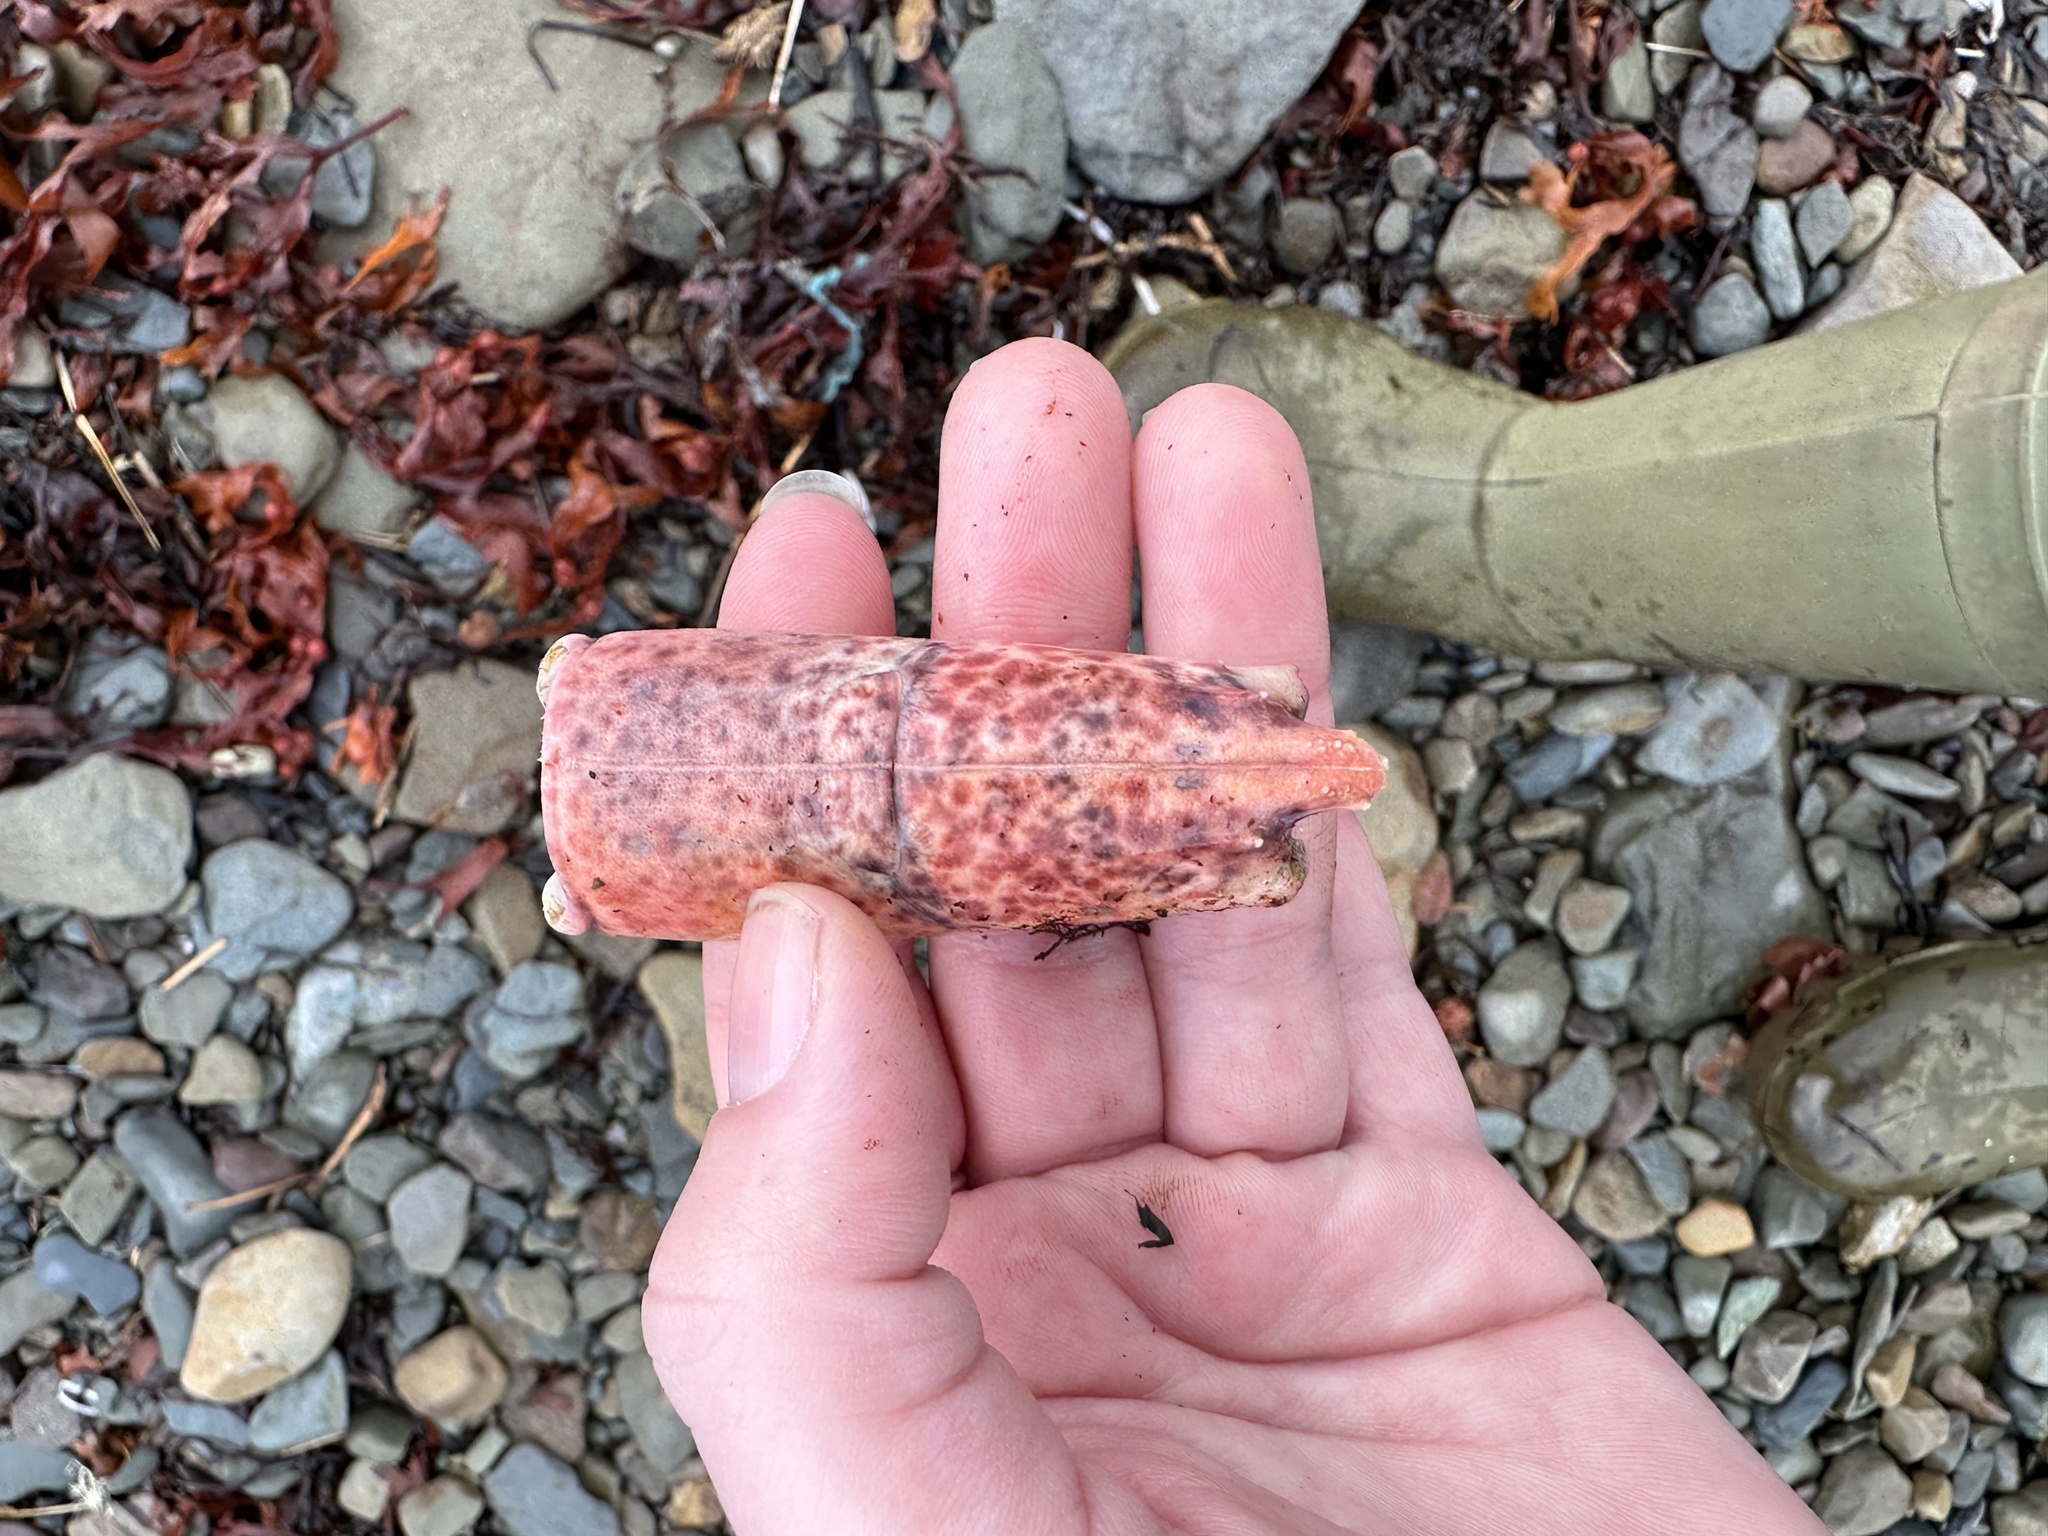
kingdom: Animalia
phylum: Arthropoda
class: Malacostraca
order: Decapoda
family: Nephropidae
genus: Homarus
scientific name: Homarus americanus
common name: American lobster
